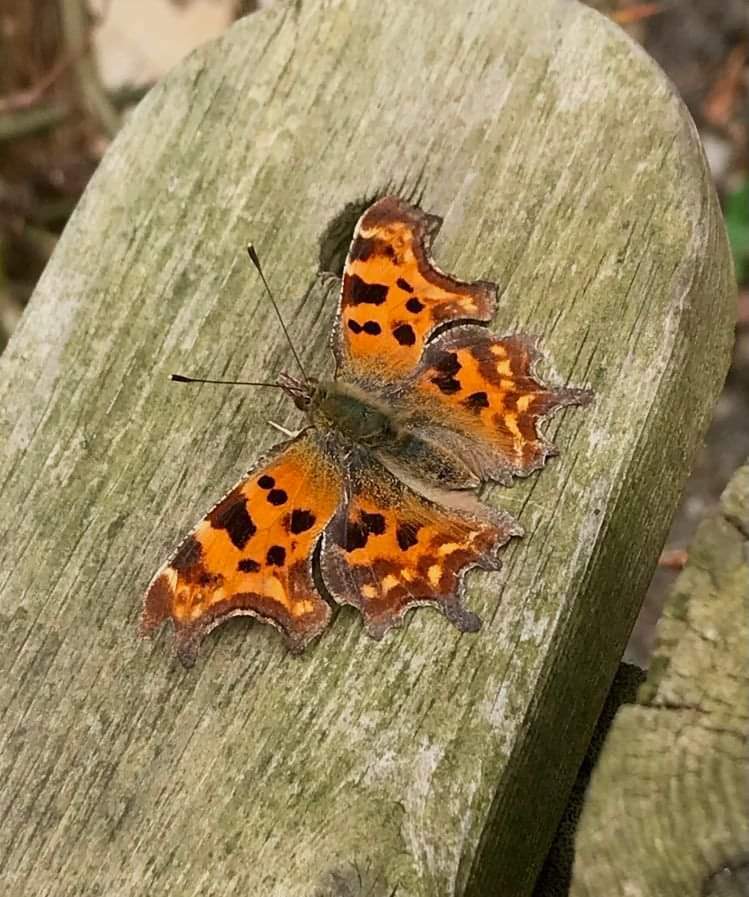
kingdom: Animalia
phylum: Arthropoda
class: Insecta
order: Lepidoptera
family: Nymphalidae
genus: Polygonia
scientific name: Polygonia c-album
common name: Comma
